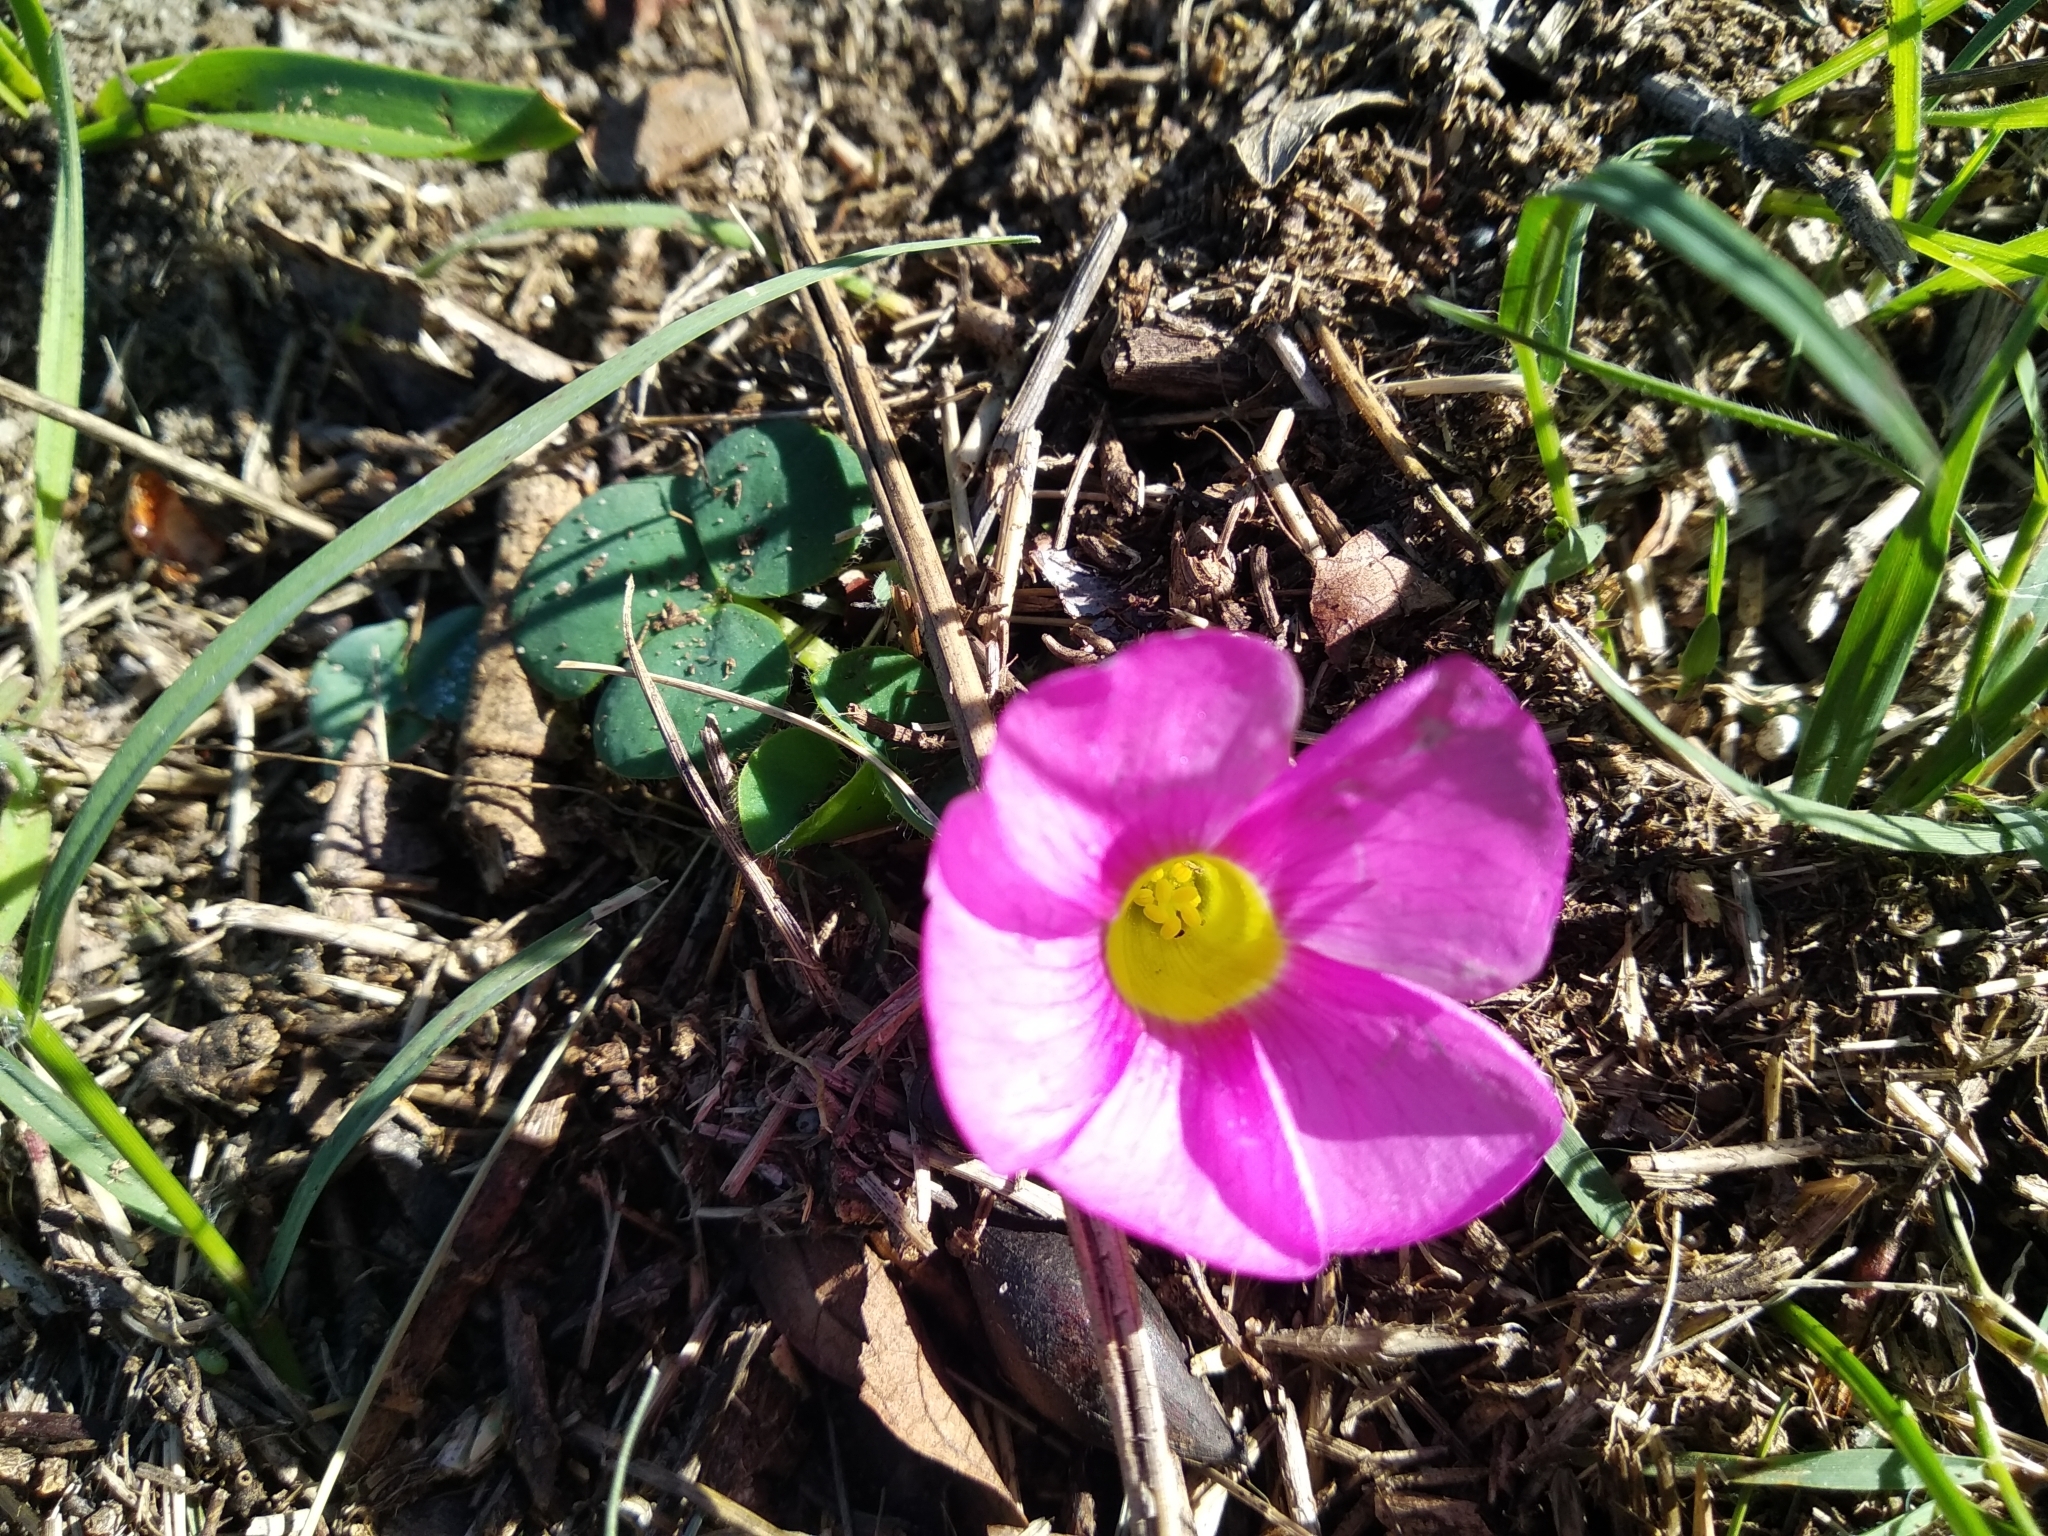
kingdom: Plantae
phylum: Tracheophyta
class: Magnoliopsida
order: Oxalidales
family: Oxalidaceae
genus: Oxalis
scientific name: Oxalis purpurea
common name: Purple woodsorrel
